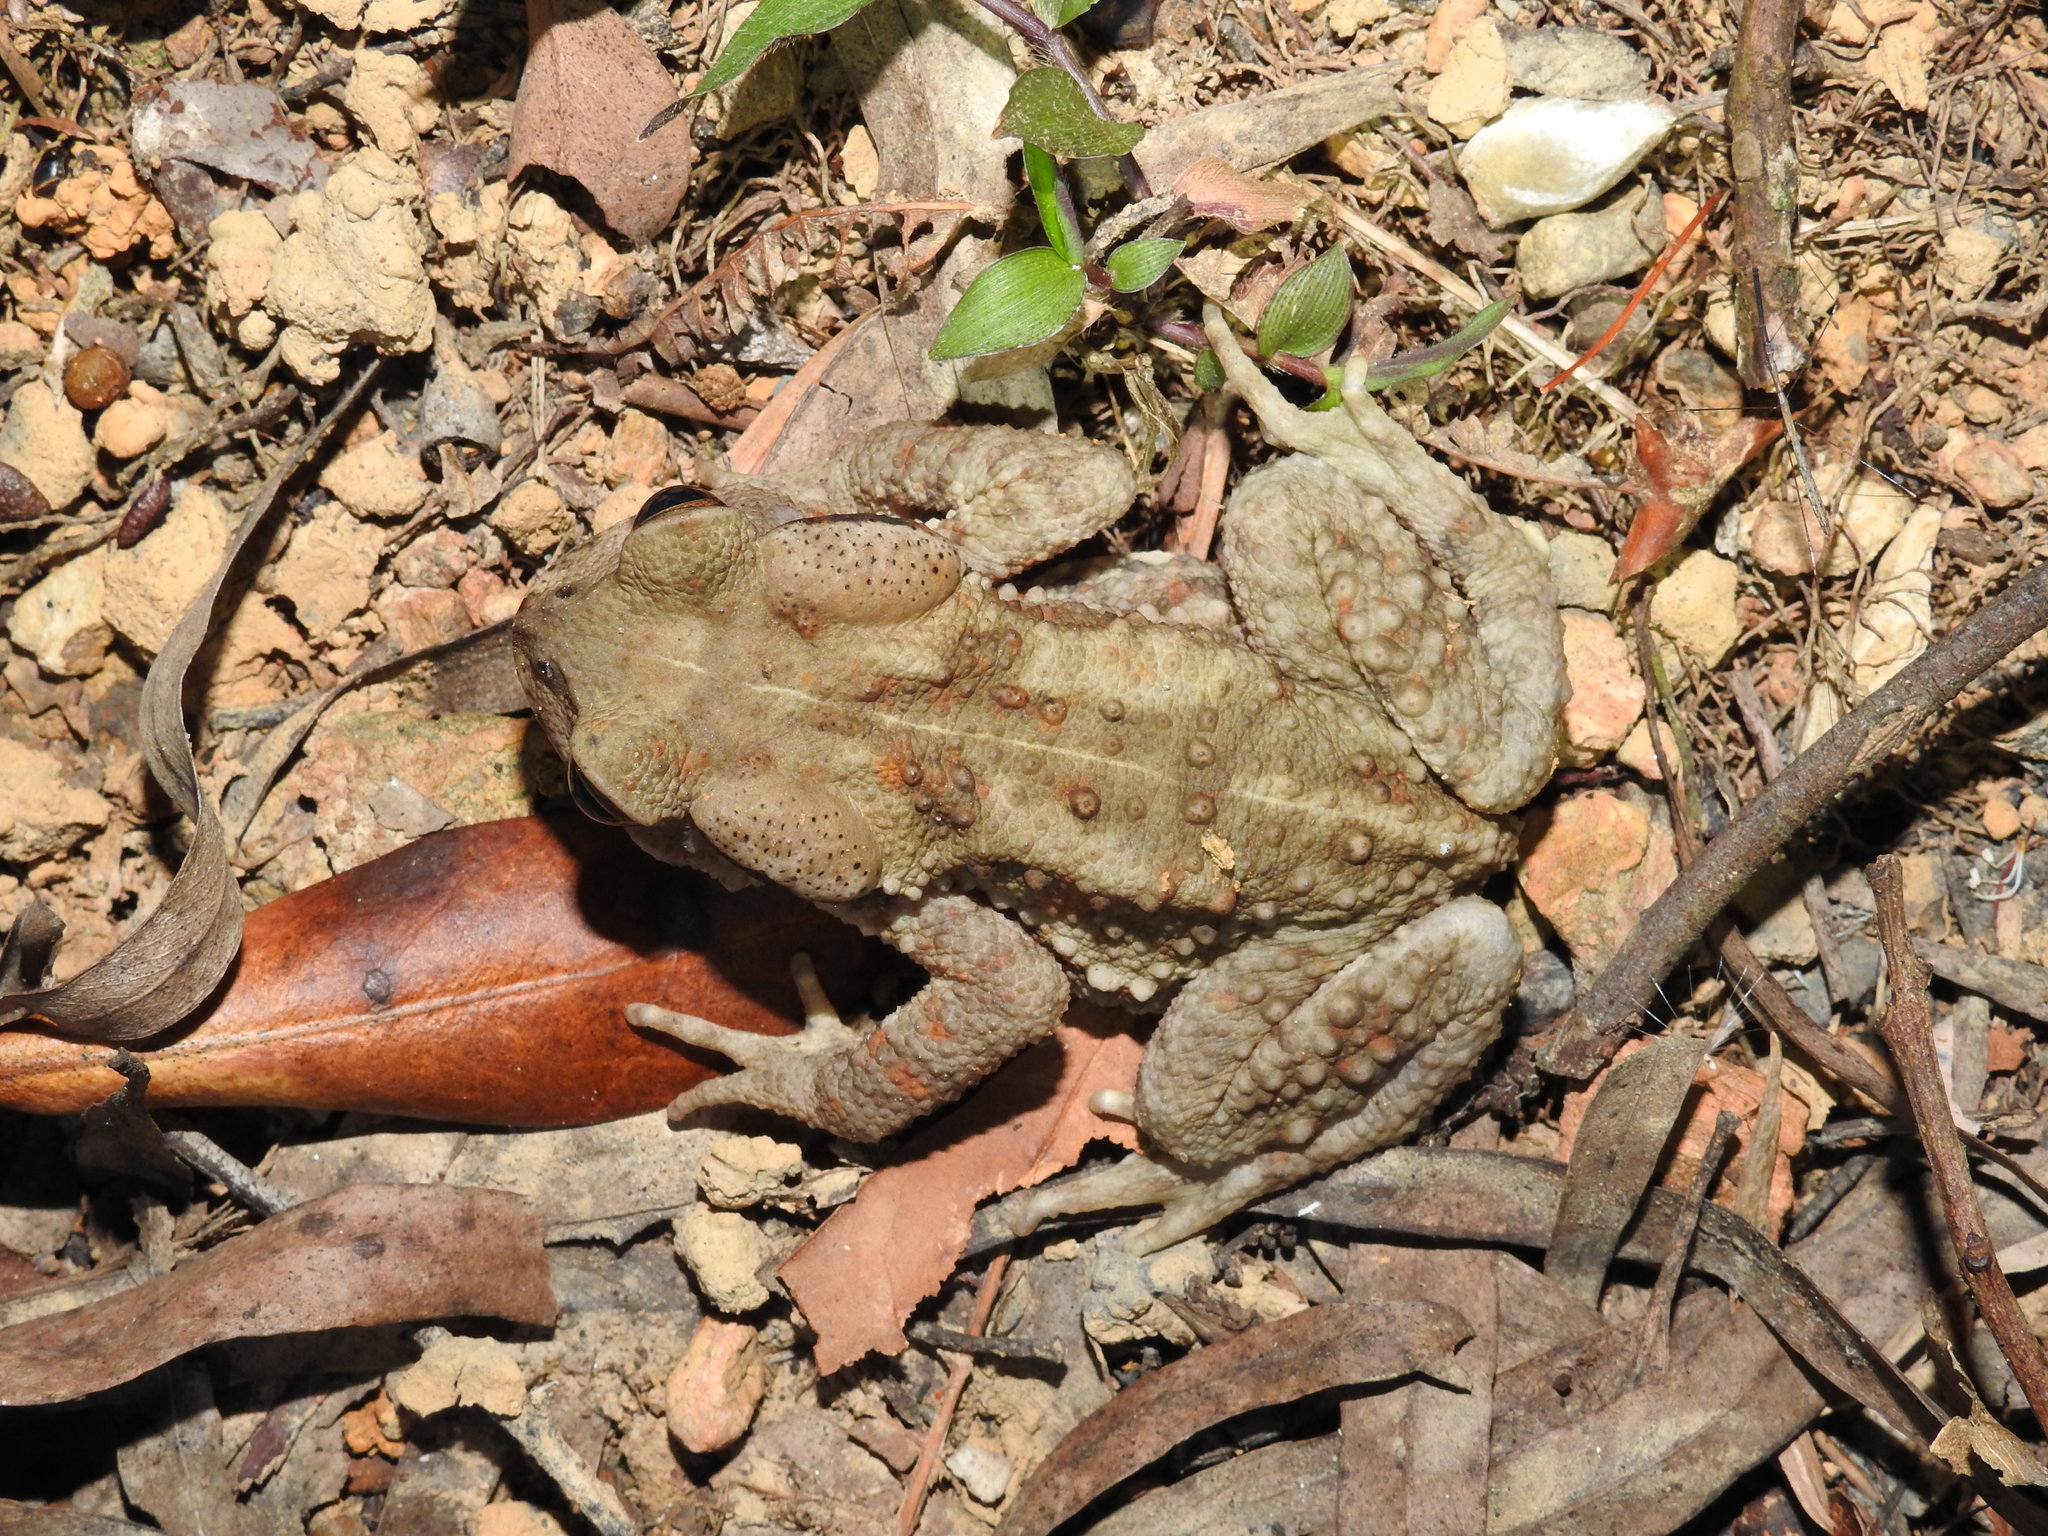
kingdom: Animalia
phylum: Chordata
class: Amphibia
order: Anura
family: Bufonidae
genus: Bufo
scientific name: Bufo bankorensis
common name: Bankor toad
